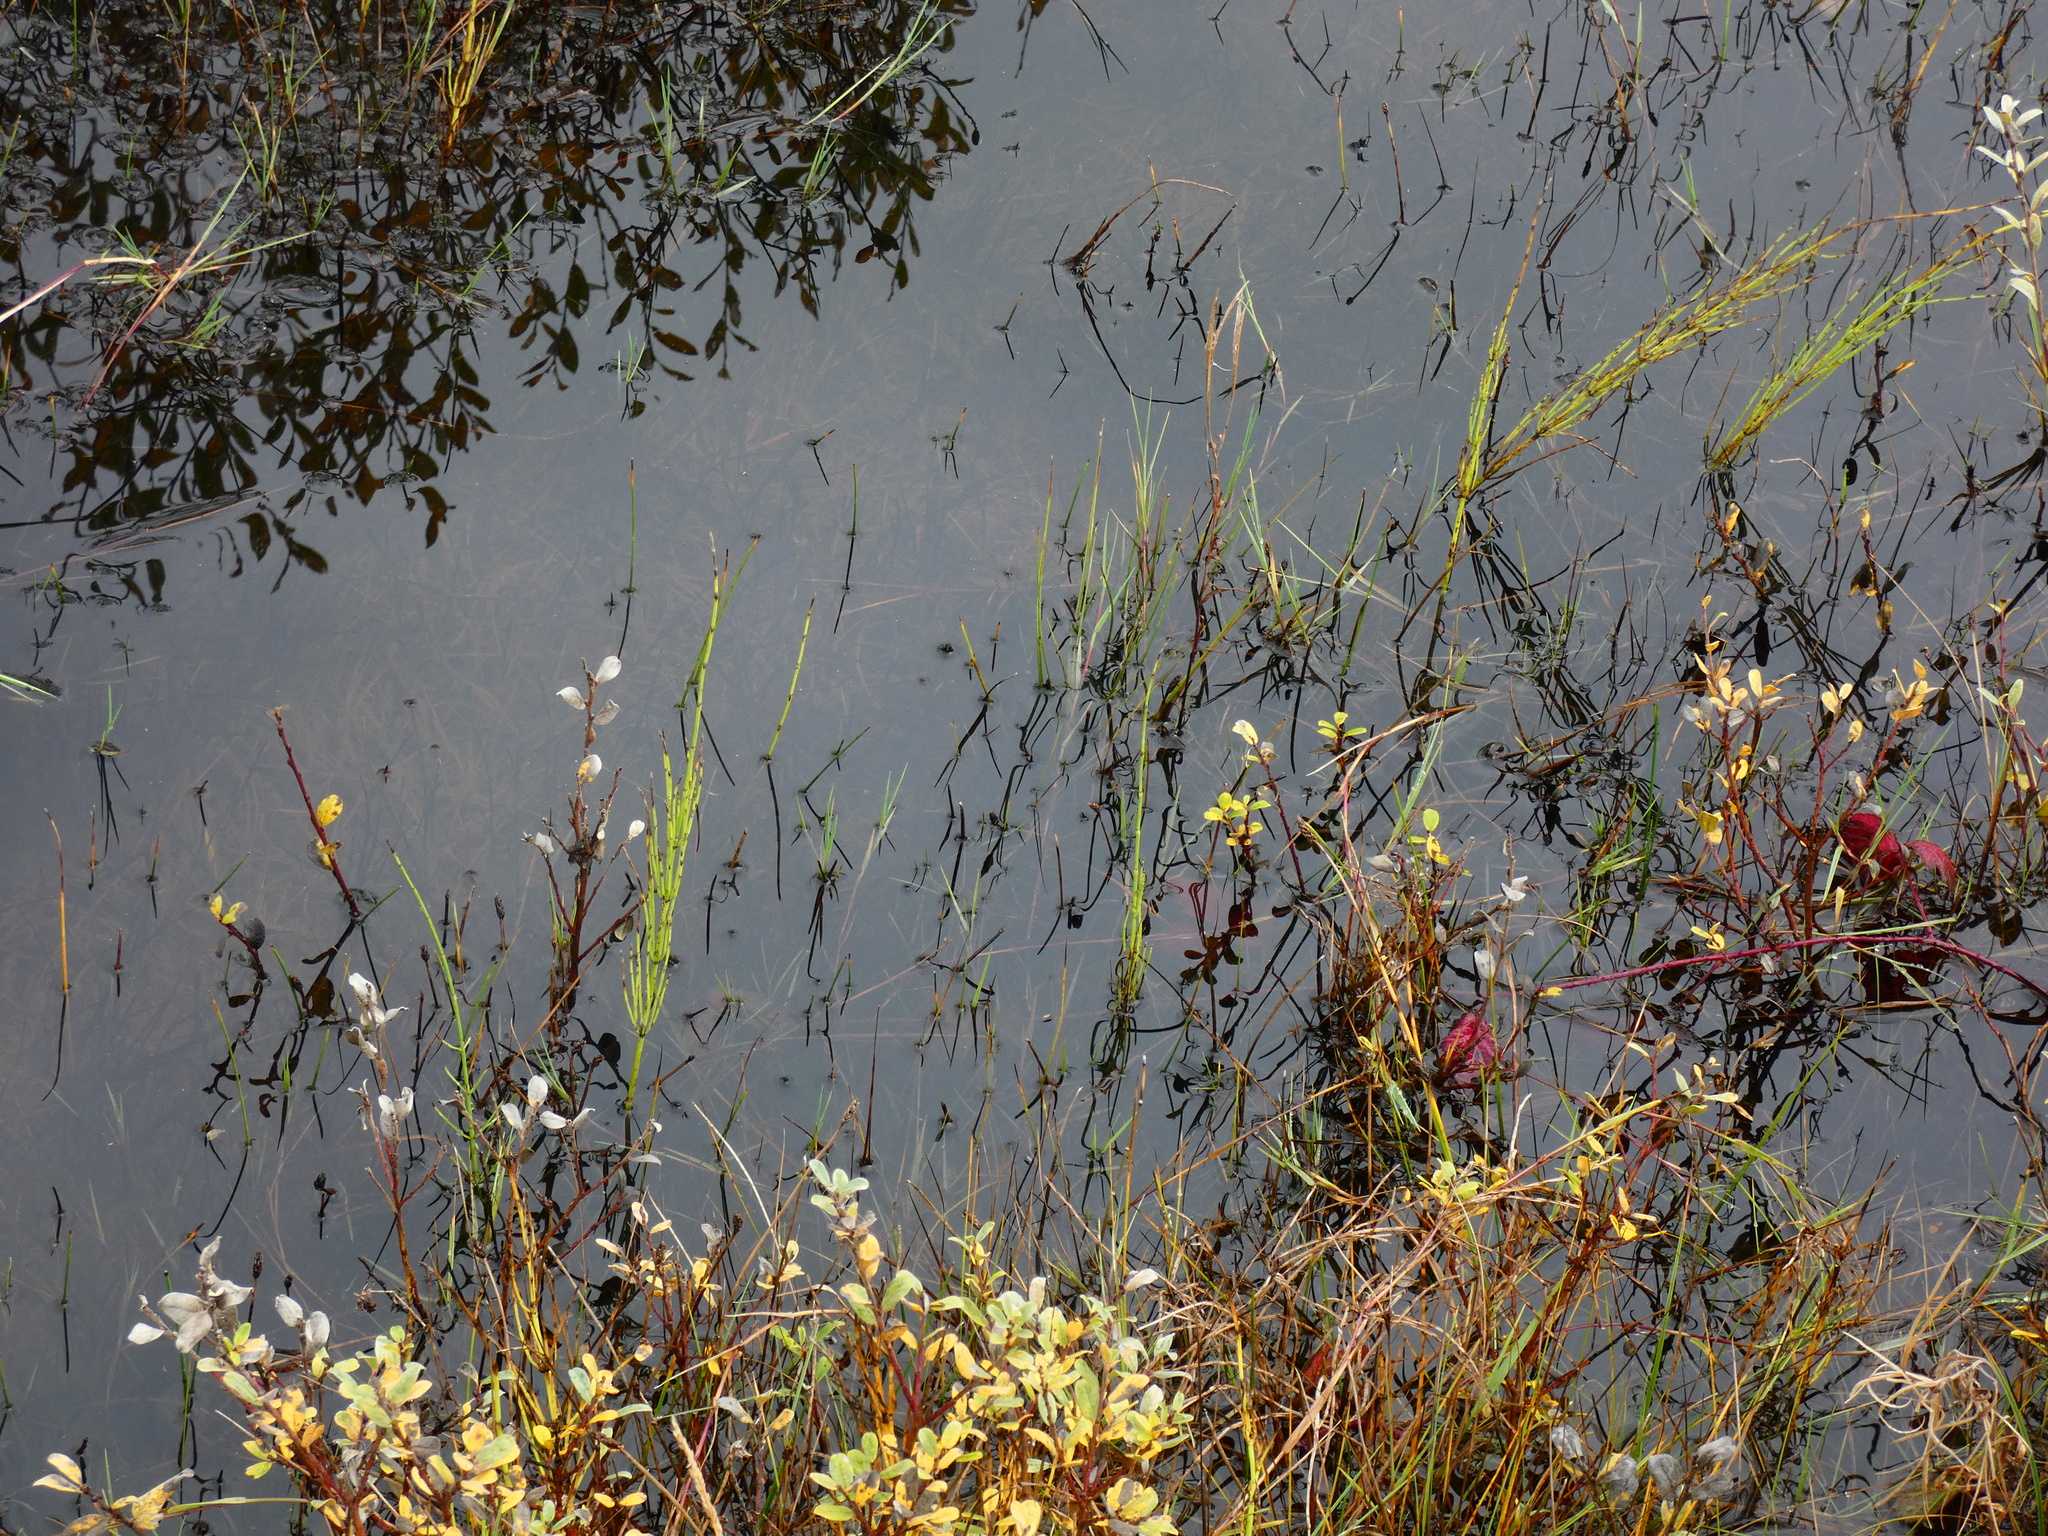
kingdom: Plantae
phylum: Tracheophyta
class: Polypodiopsida
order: Equisetales
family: Equisetaceae
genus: Equisetum
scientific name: Equisetum palustre
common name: Marsh horsetail
